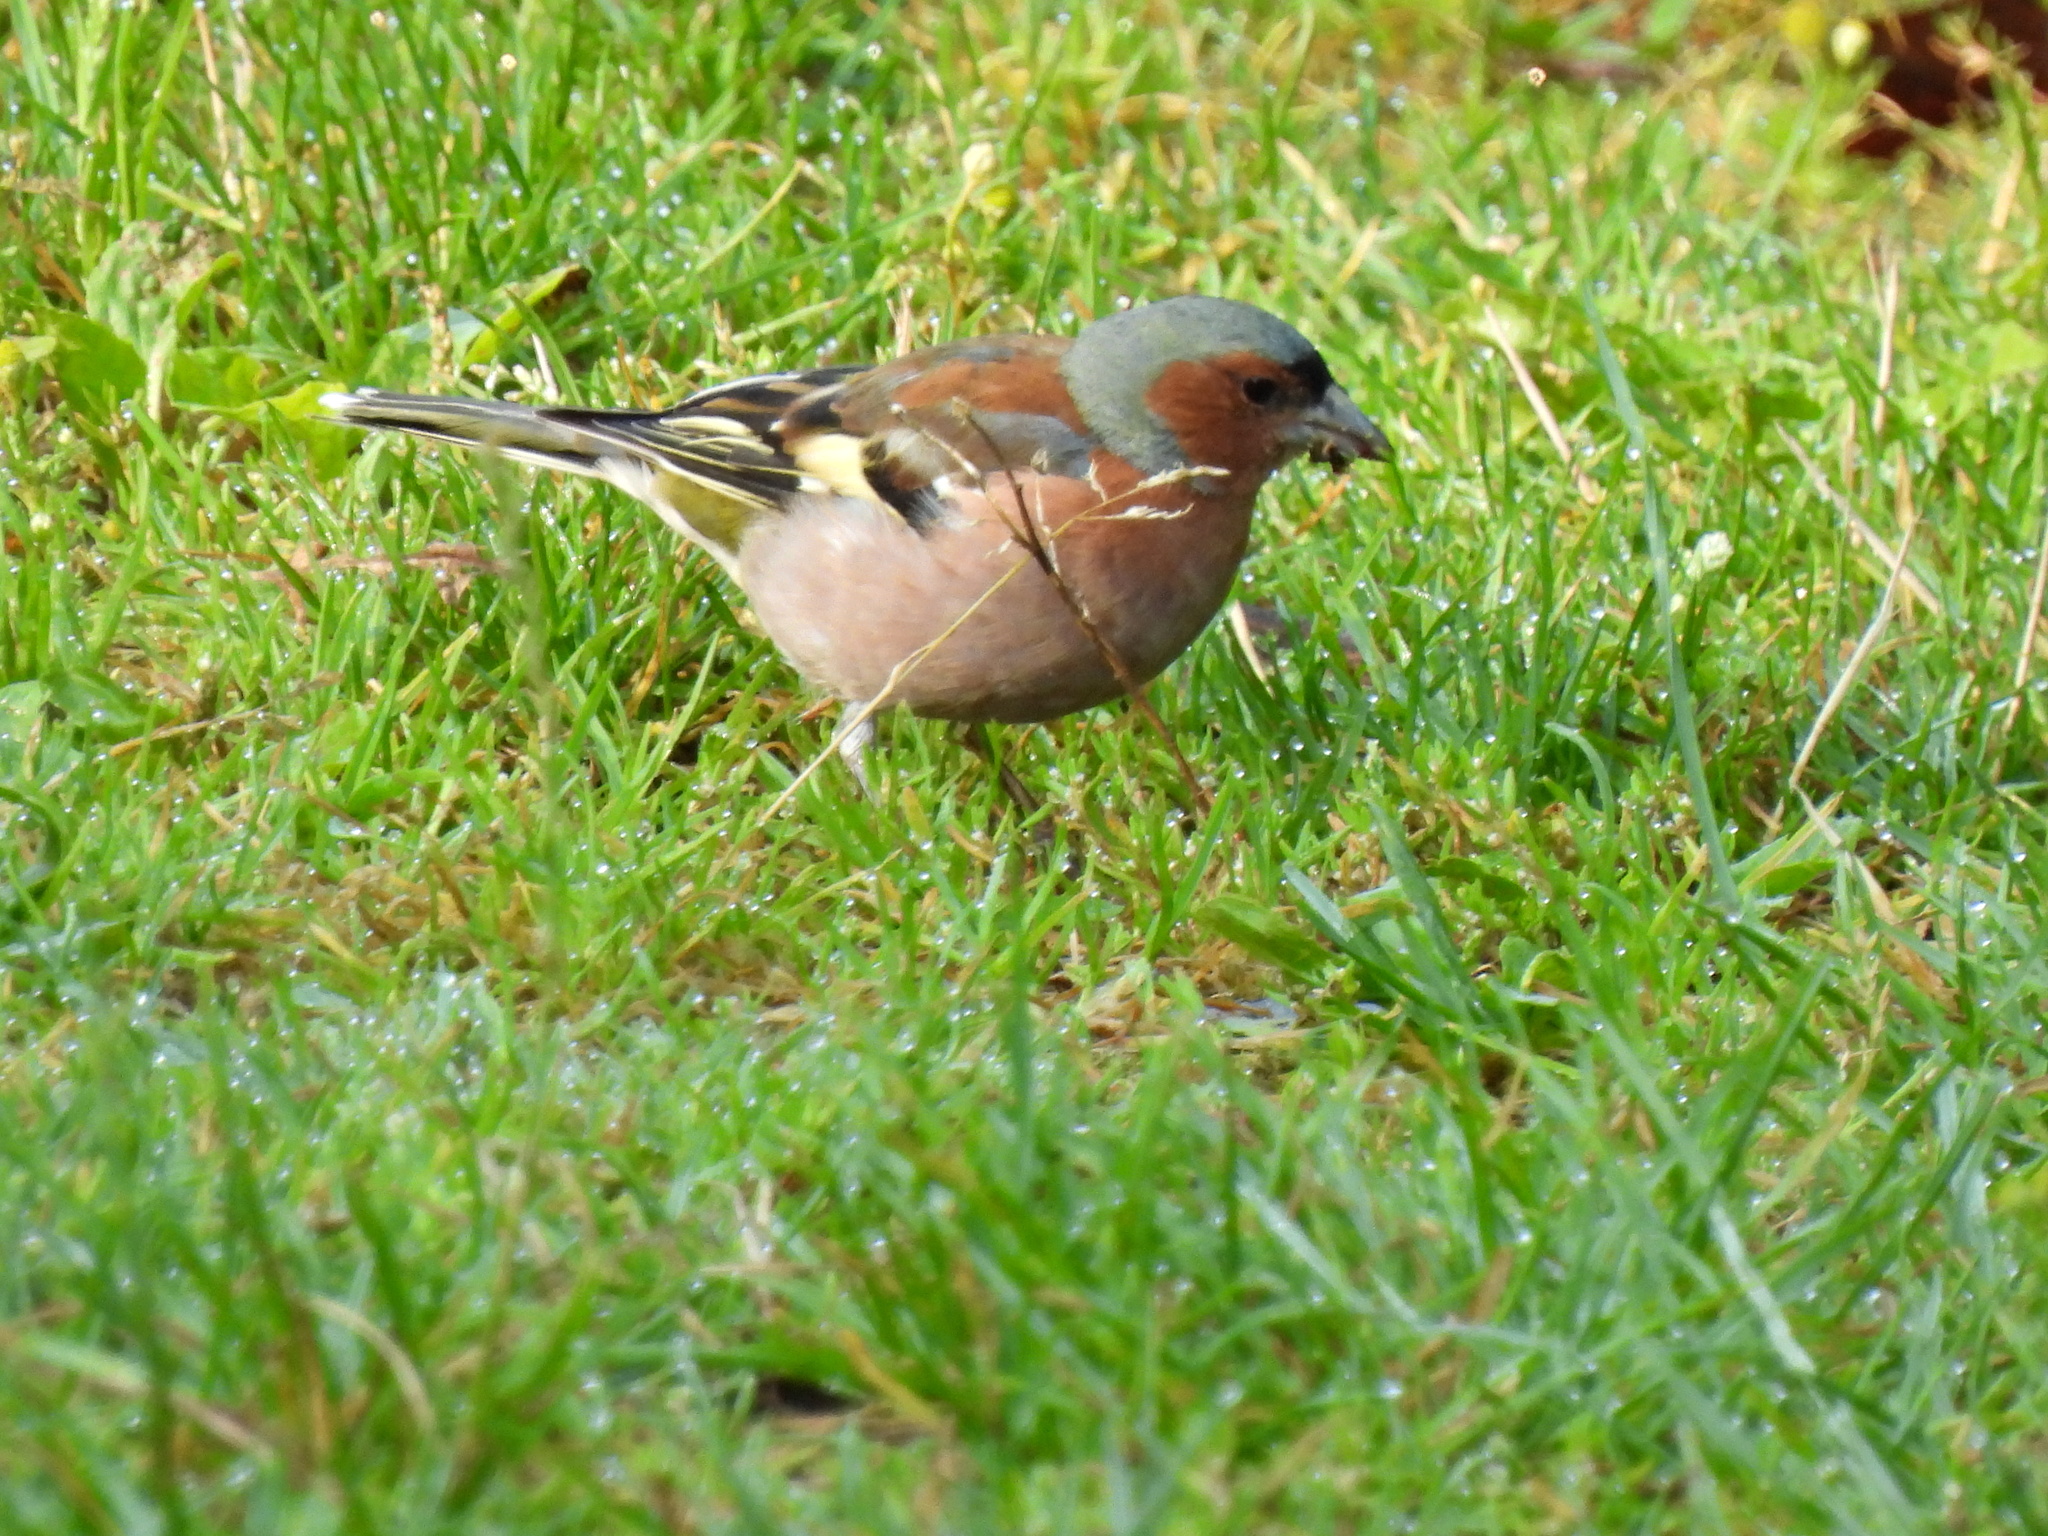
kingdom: Animalia
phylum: Chordata
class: Aves
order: Passeriformes
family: Fringillidae
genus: Fringilla
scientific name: Fringilla coelebs
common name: Common chaffinch
